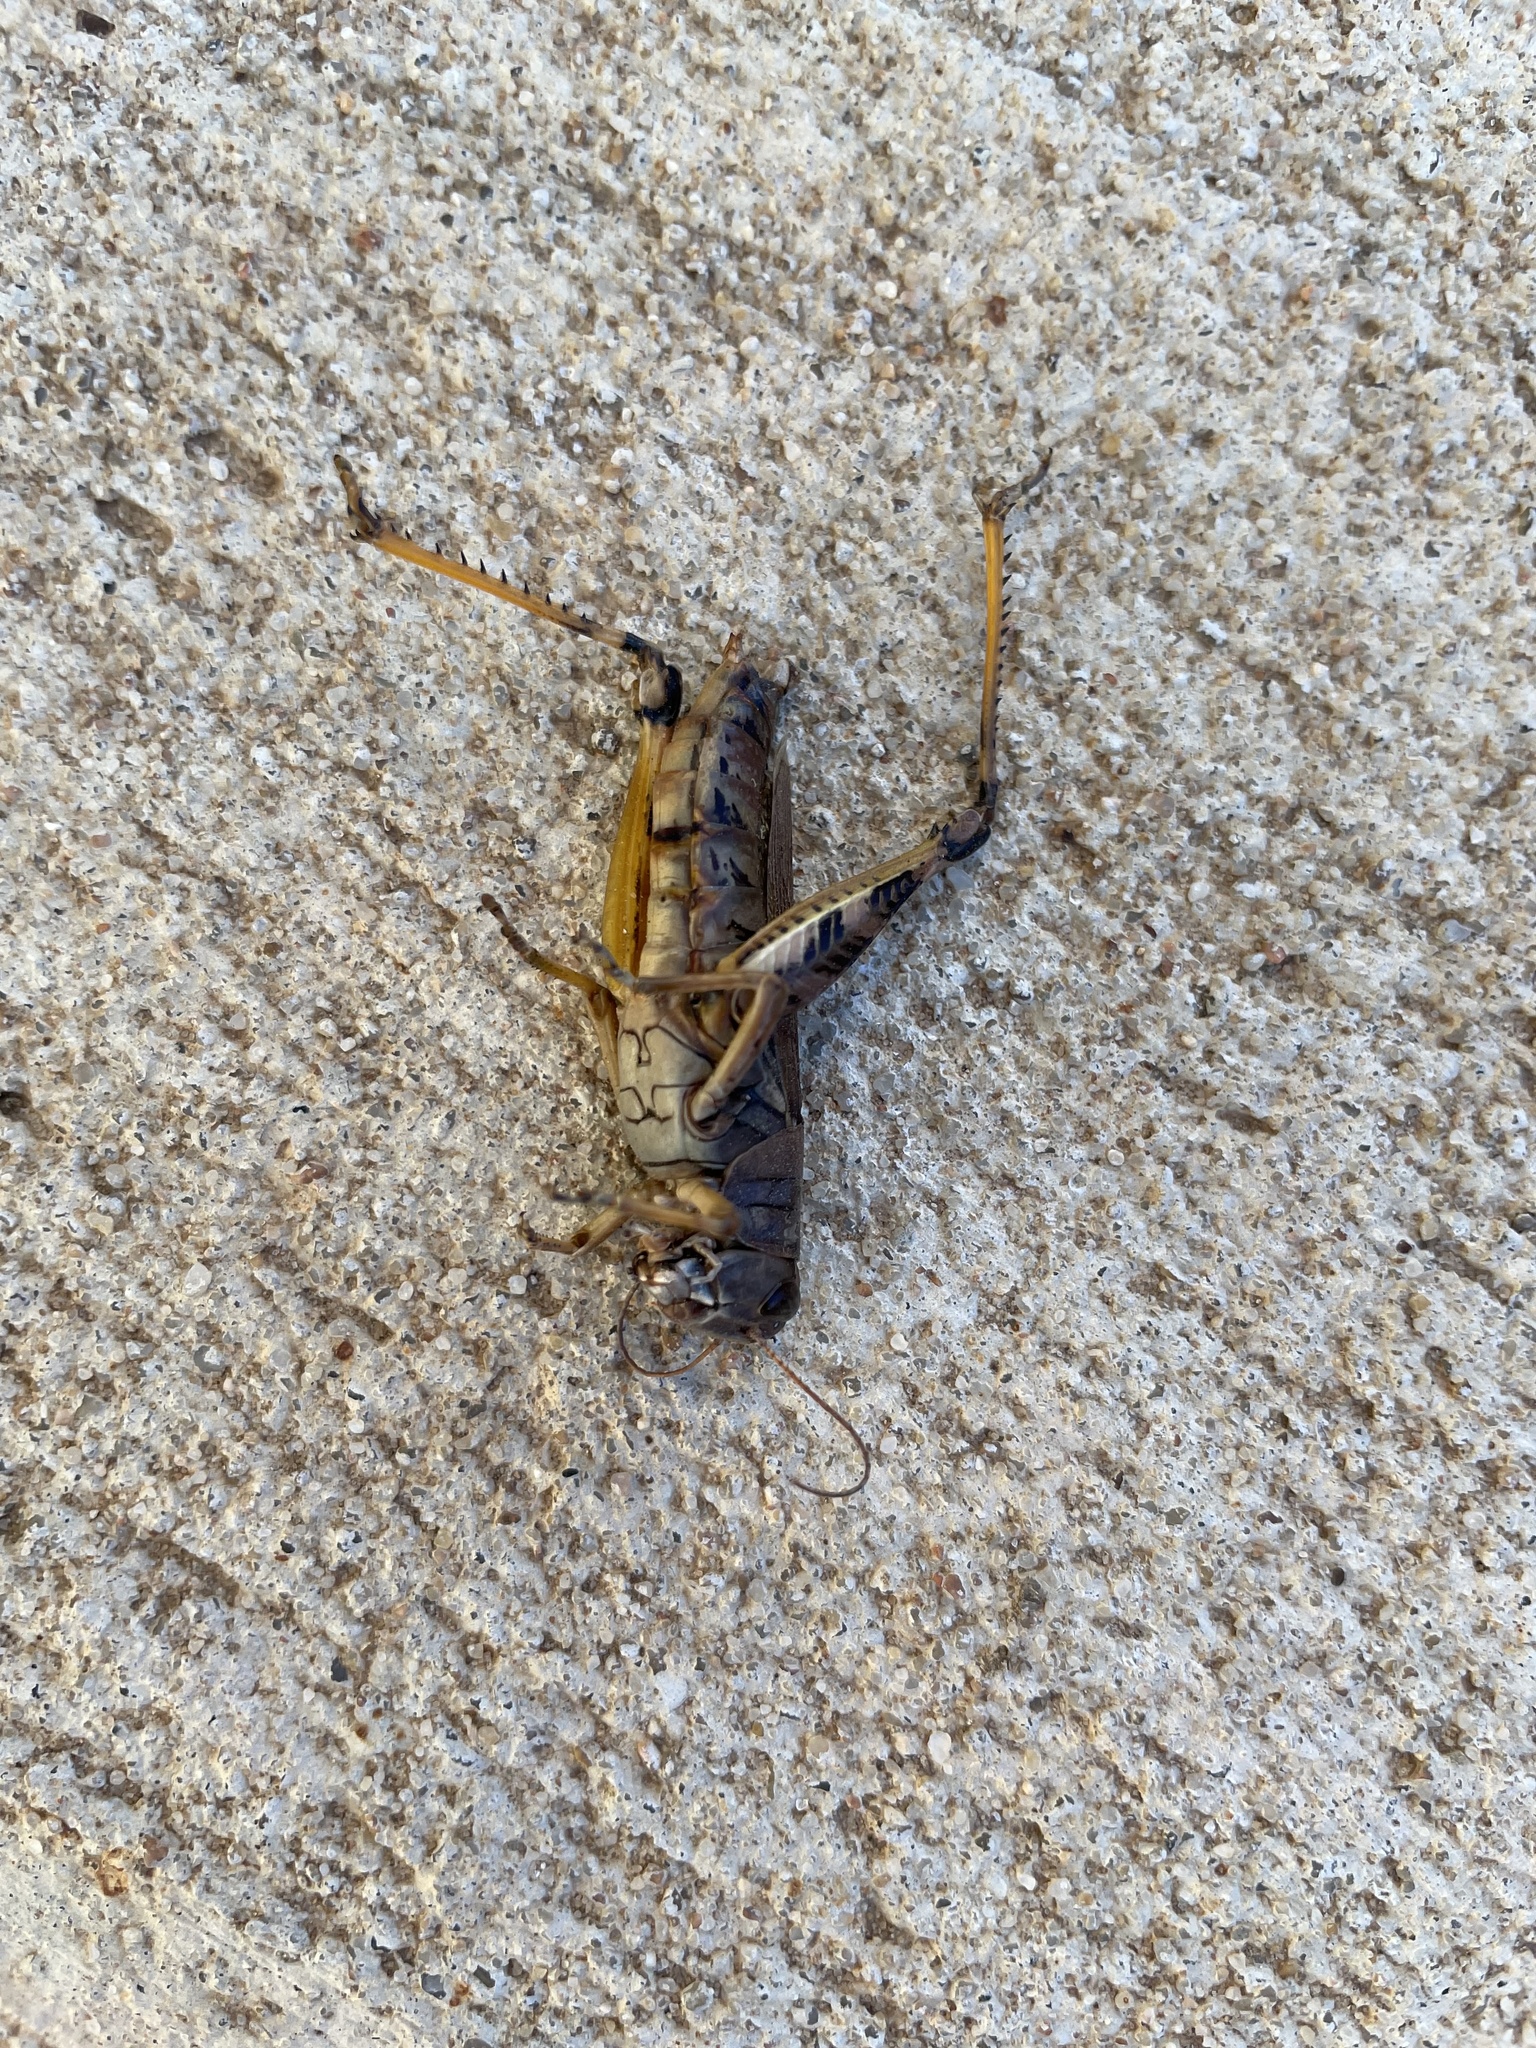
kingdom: Animalia
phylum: Arthropoda
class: Insecta
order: Orthoptera
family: Acrididae
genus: Melanoplus
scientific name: Melanoplus ponderosus
